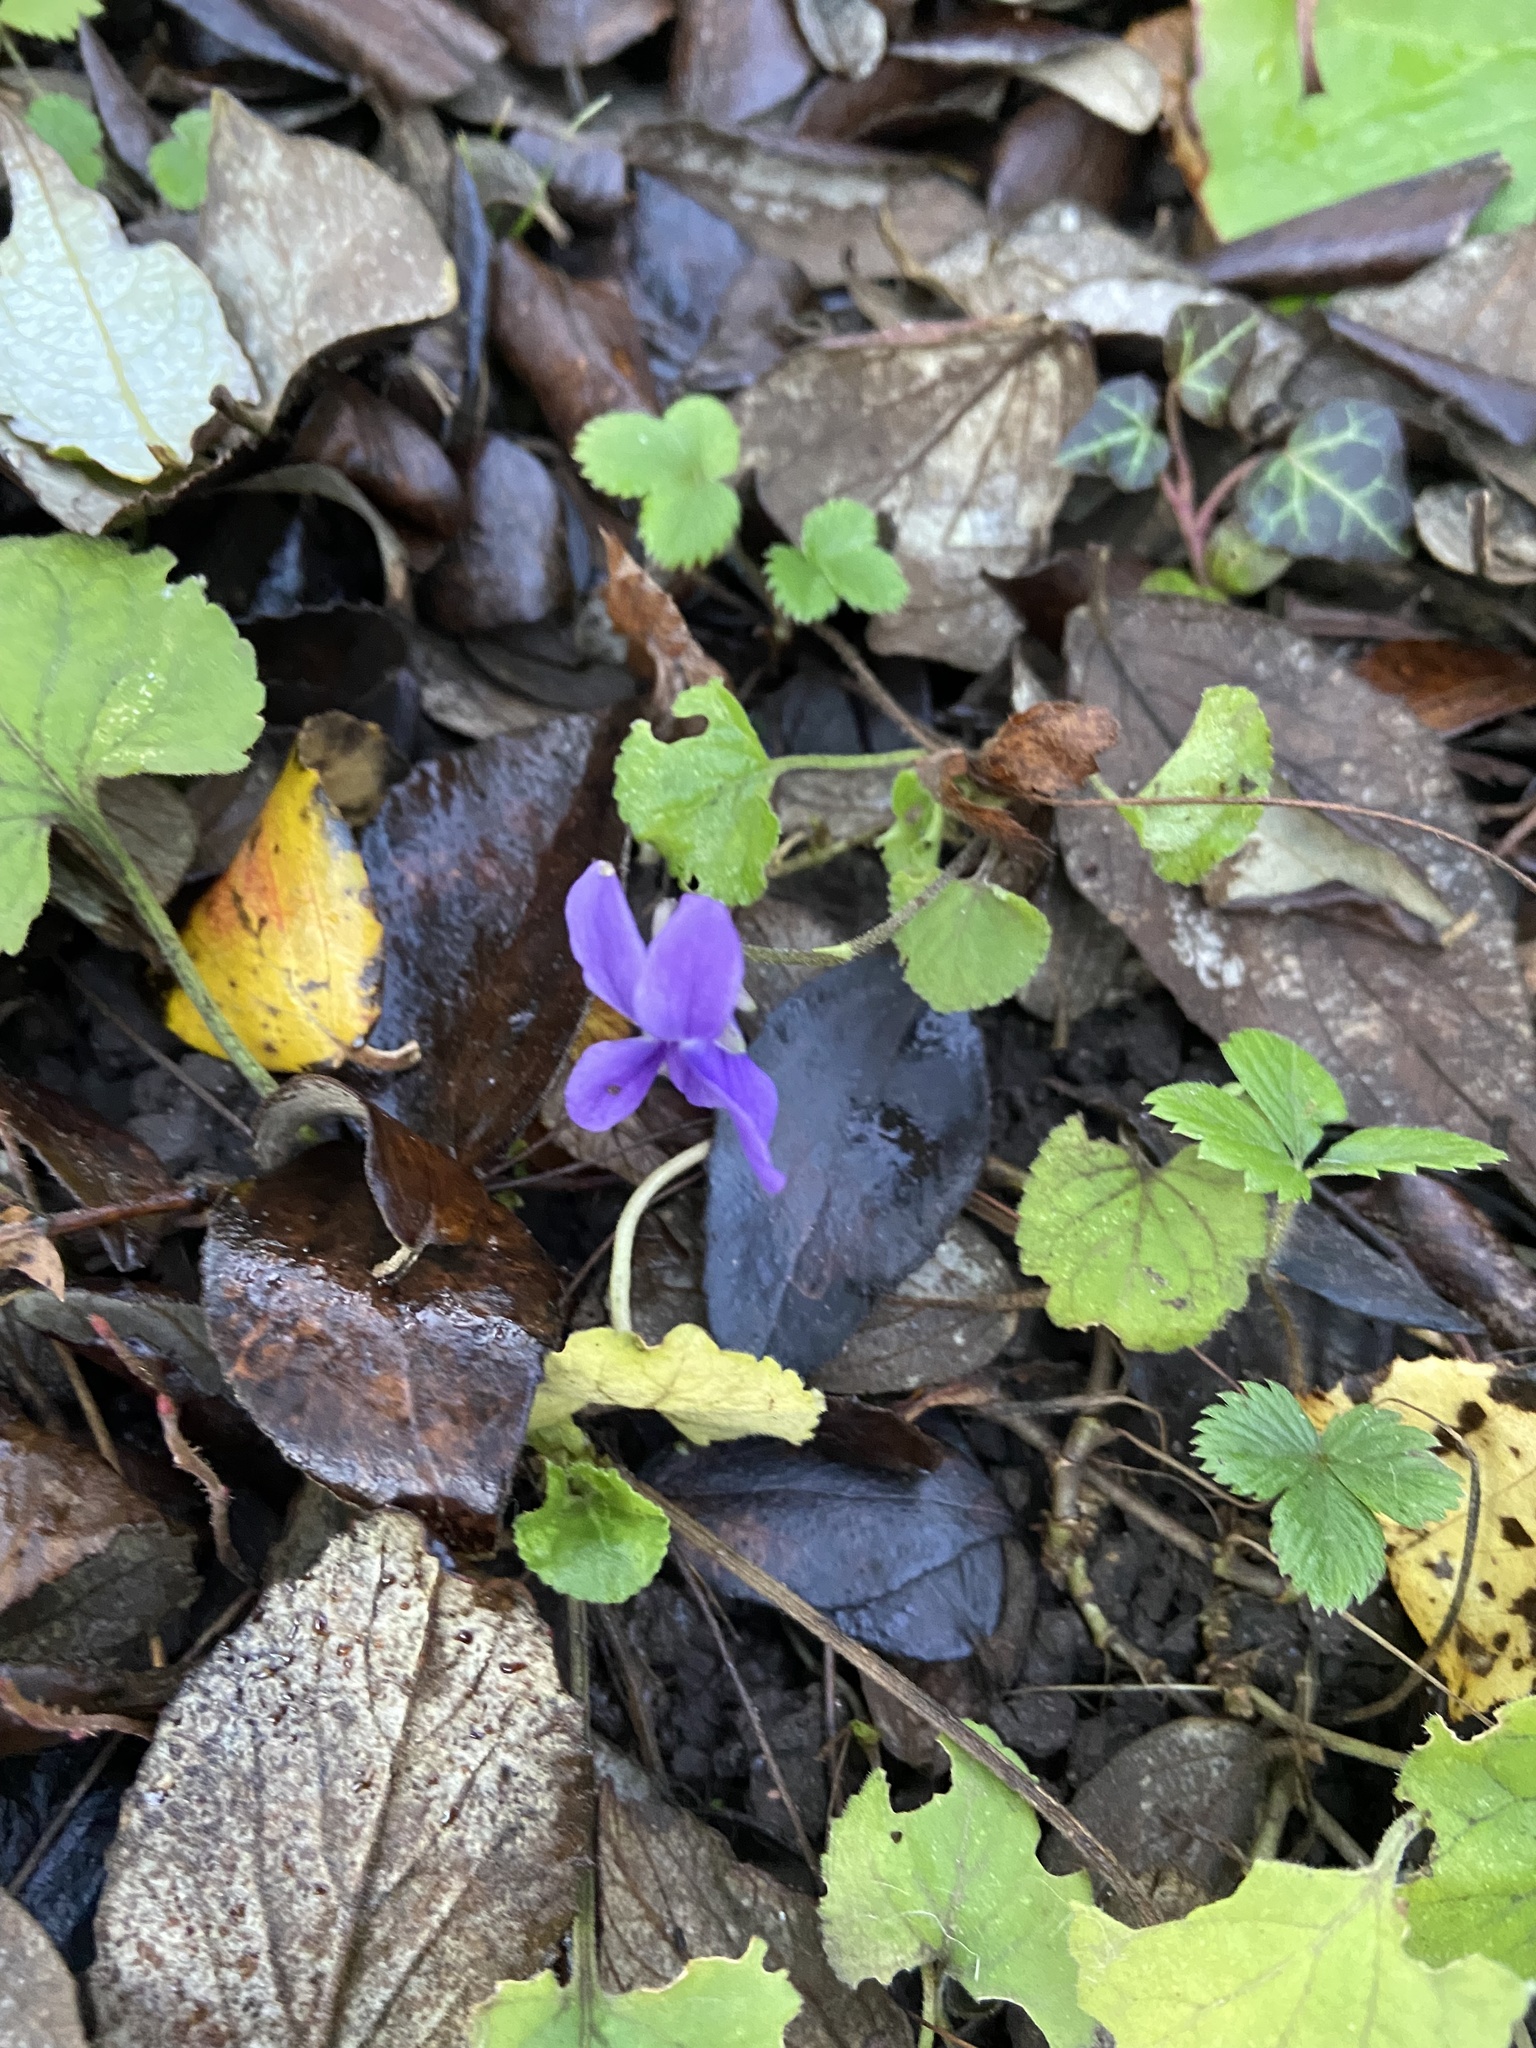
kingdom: Plantae
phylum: Tracheophyta
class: Magnoliopsida
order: Malpighiales
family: Violaceae
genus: Viola
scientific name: Viola odorata
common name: Sweet violet
